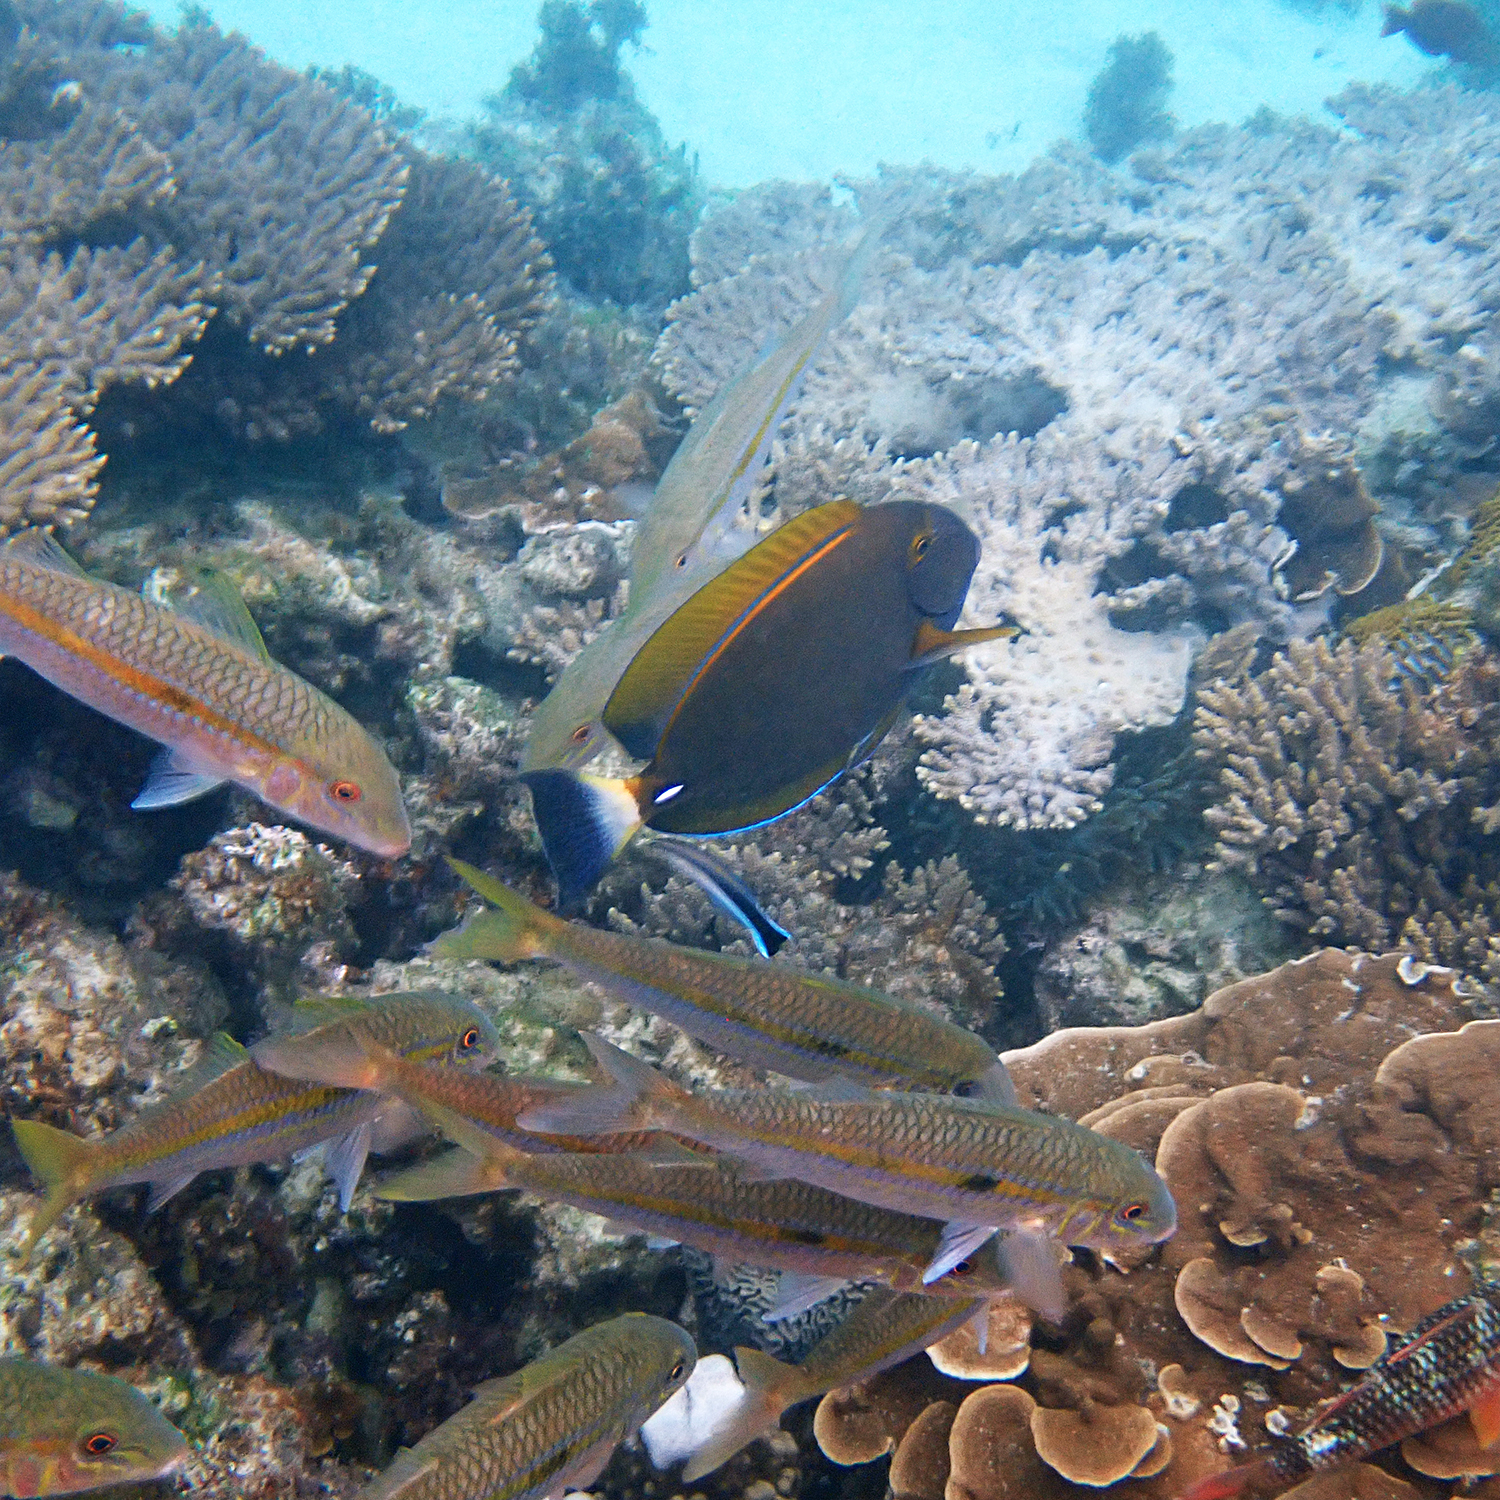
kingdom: Animalia
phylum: Chordata
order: Perciformes
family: Acanthuridae
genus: Acanthurus
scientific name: Acanthurus dussumieri
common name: Dussumier's surgeonfish
